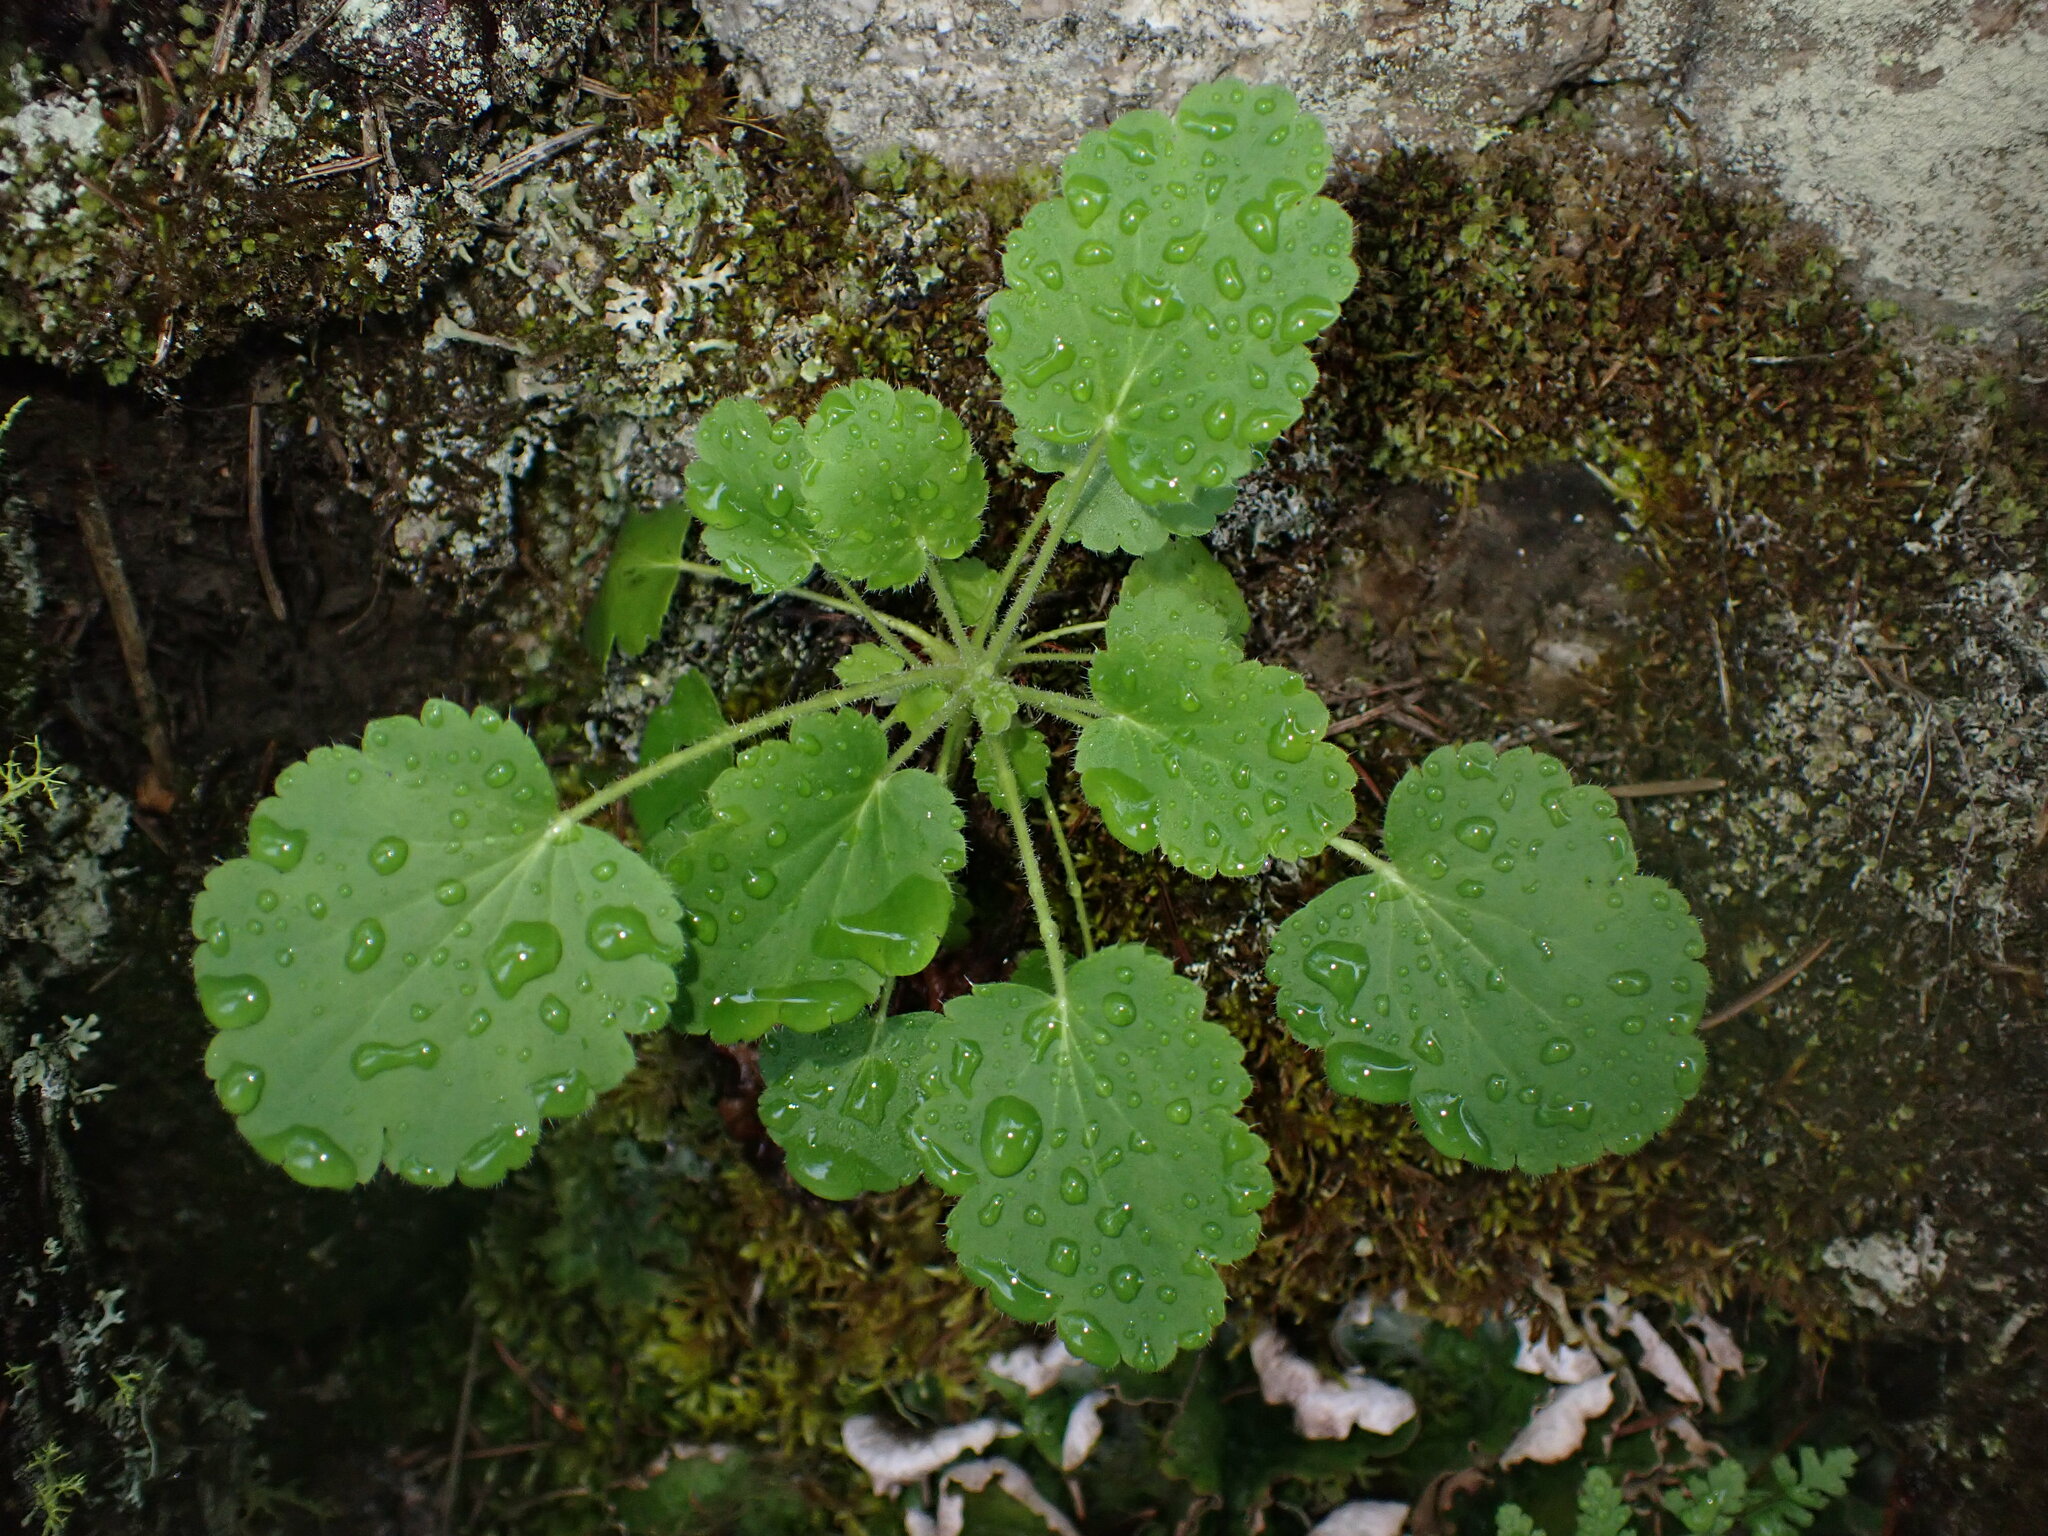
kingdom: Plantae
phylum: Tracheophyta
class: Magnoliopsida
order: Saxifragales
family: Saxifragaceae
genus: Heuchera
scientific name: Heuchera cylindrica
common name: Mat alumroot
